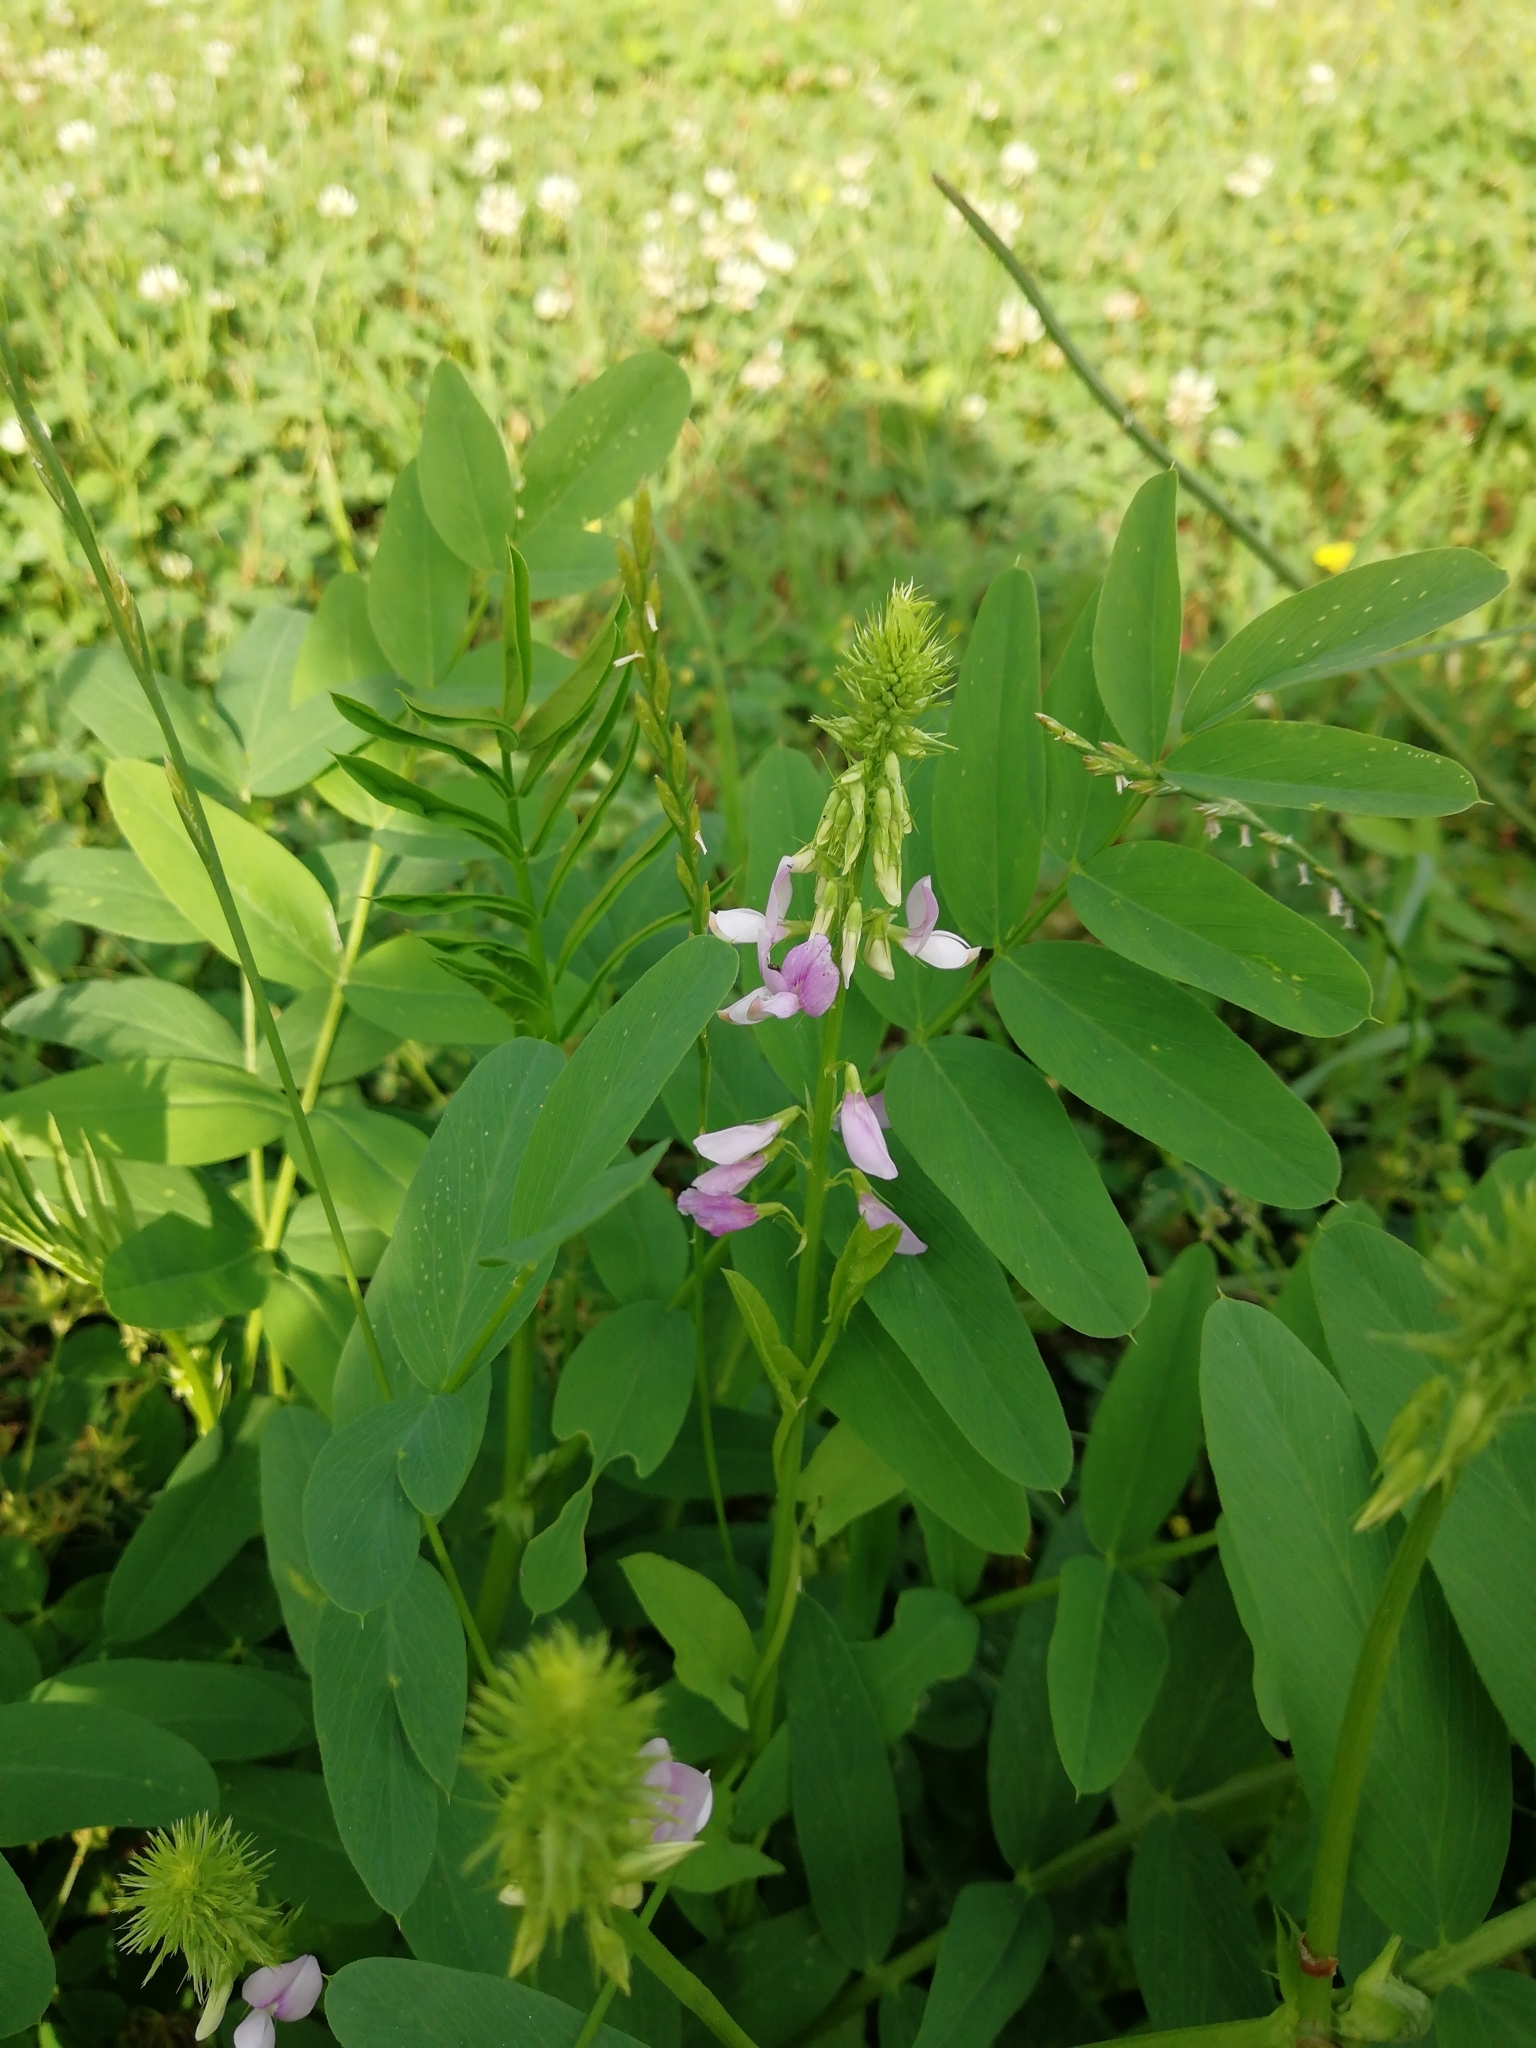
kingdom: Plantae
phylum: Tracheophyta
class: Magnoliopsida
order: Fabales
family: Fabaceae
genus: Galega
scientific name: Galega officinalis
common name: Goat's-rue
